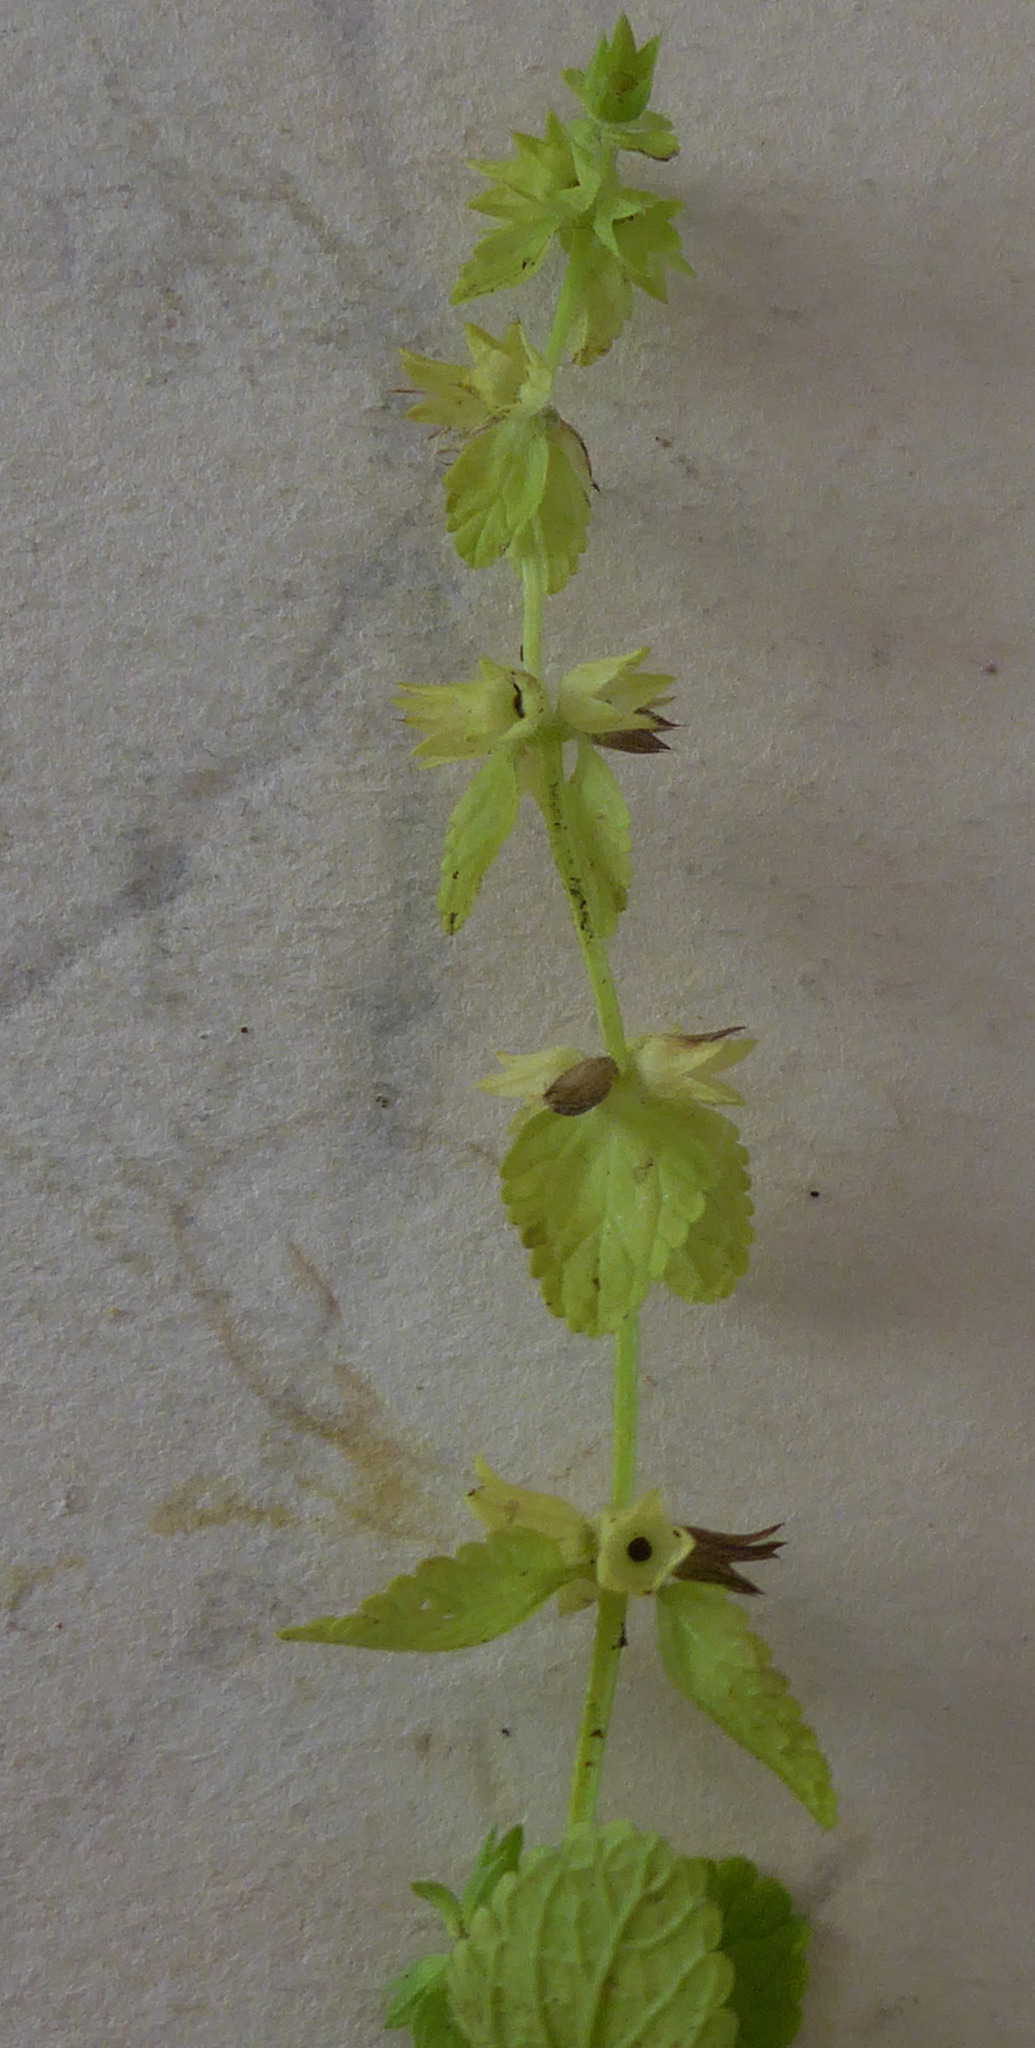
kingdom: Plantae
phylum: Tracheophyta
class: Magnoliopsida
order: Lamiales
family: Lamiaceae
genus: Stachys
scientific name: Stachys arvensis
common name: Field woundwort
